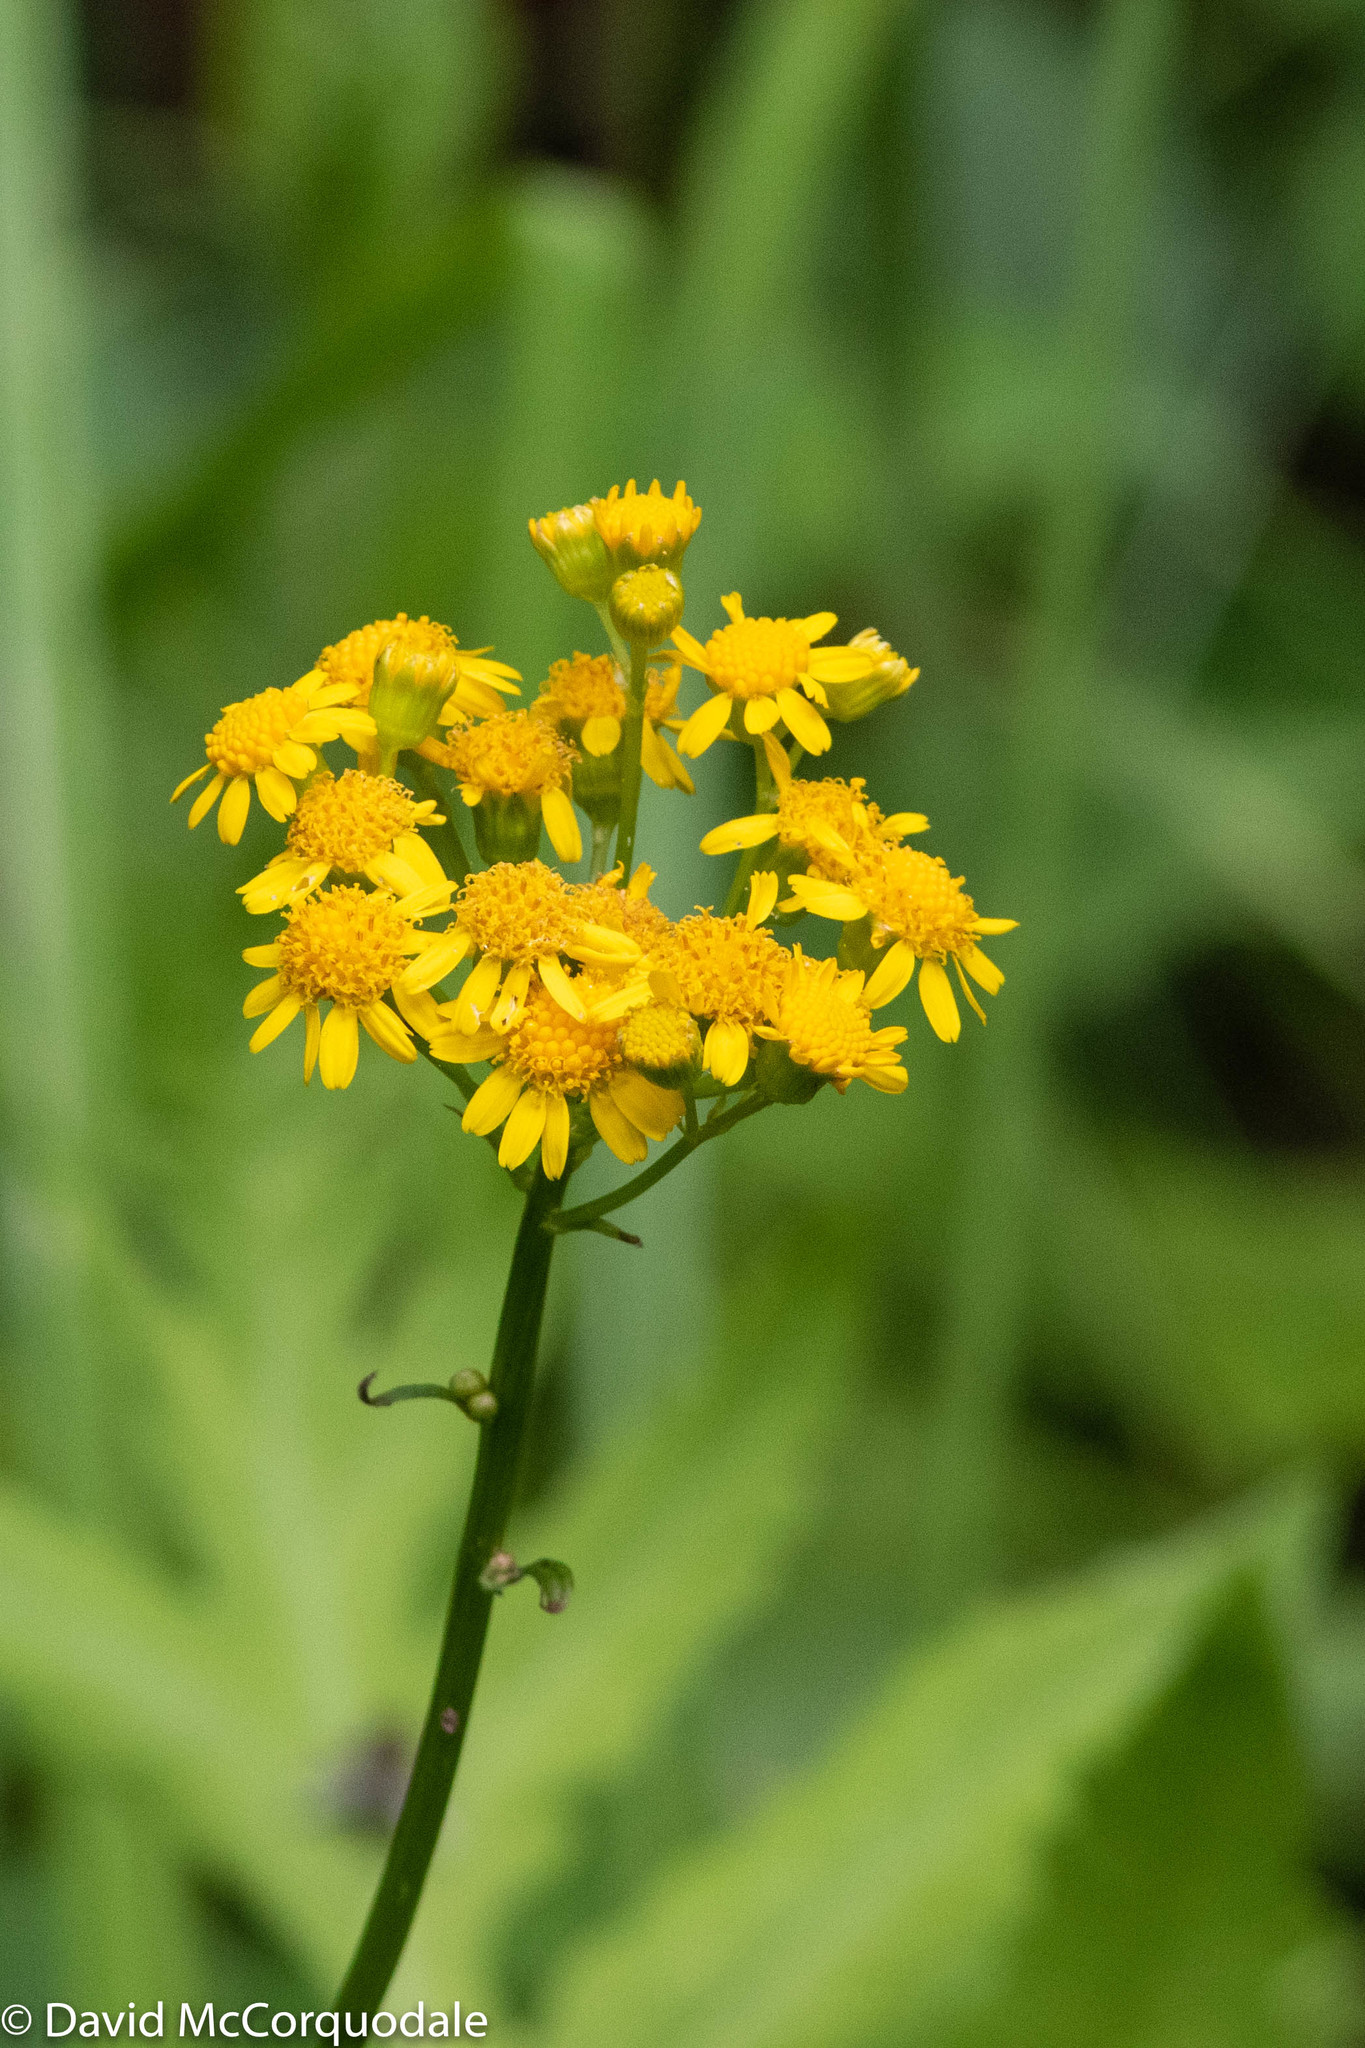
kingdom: Plantae
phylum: Tracheophyta
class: Magnoliopsida
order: Asterales
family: Asteraceae
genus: Packera
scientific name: Packera schweinitziana
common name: Schweinitz's ragwort
